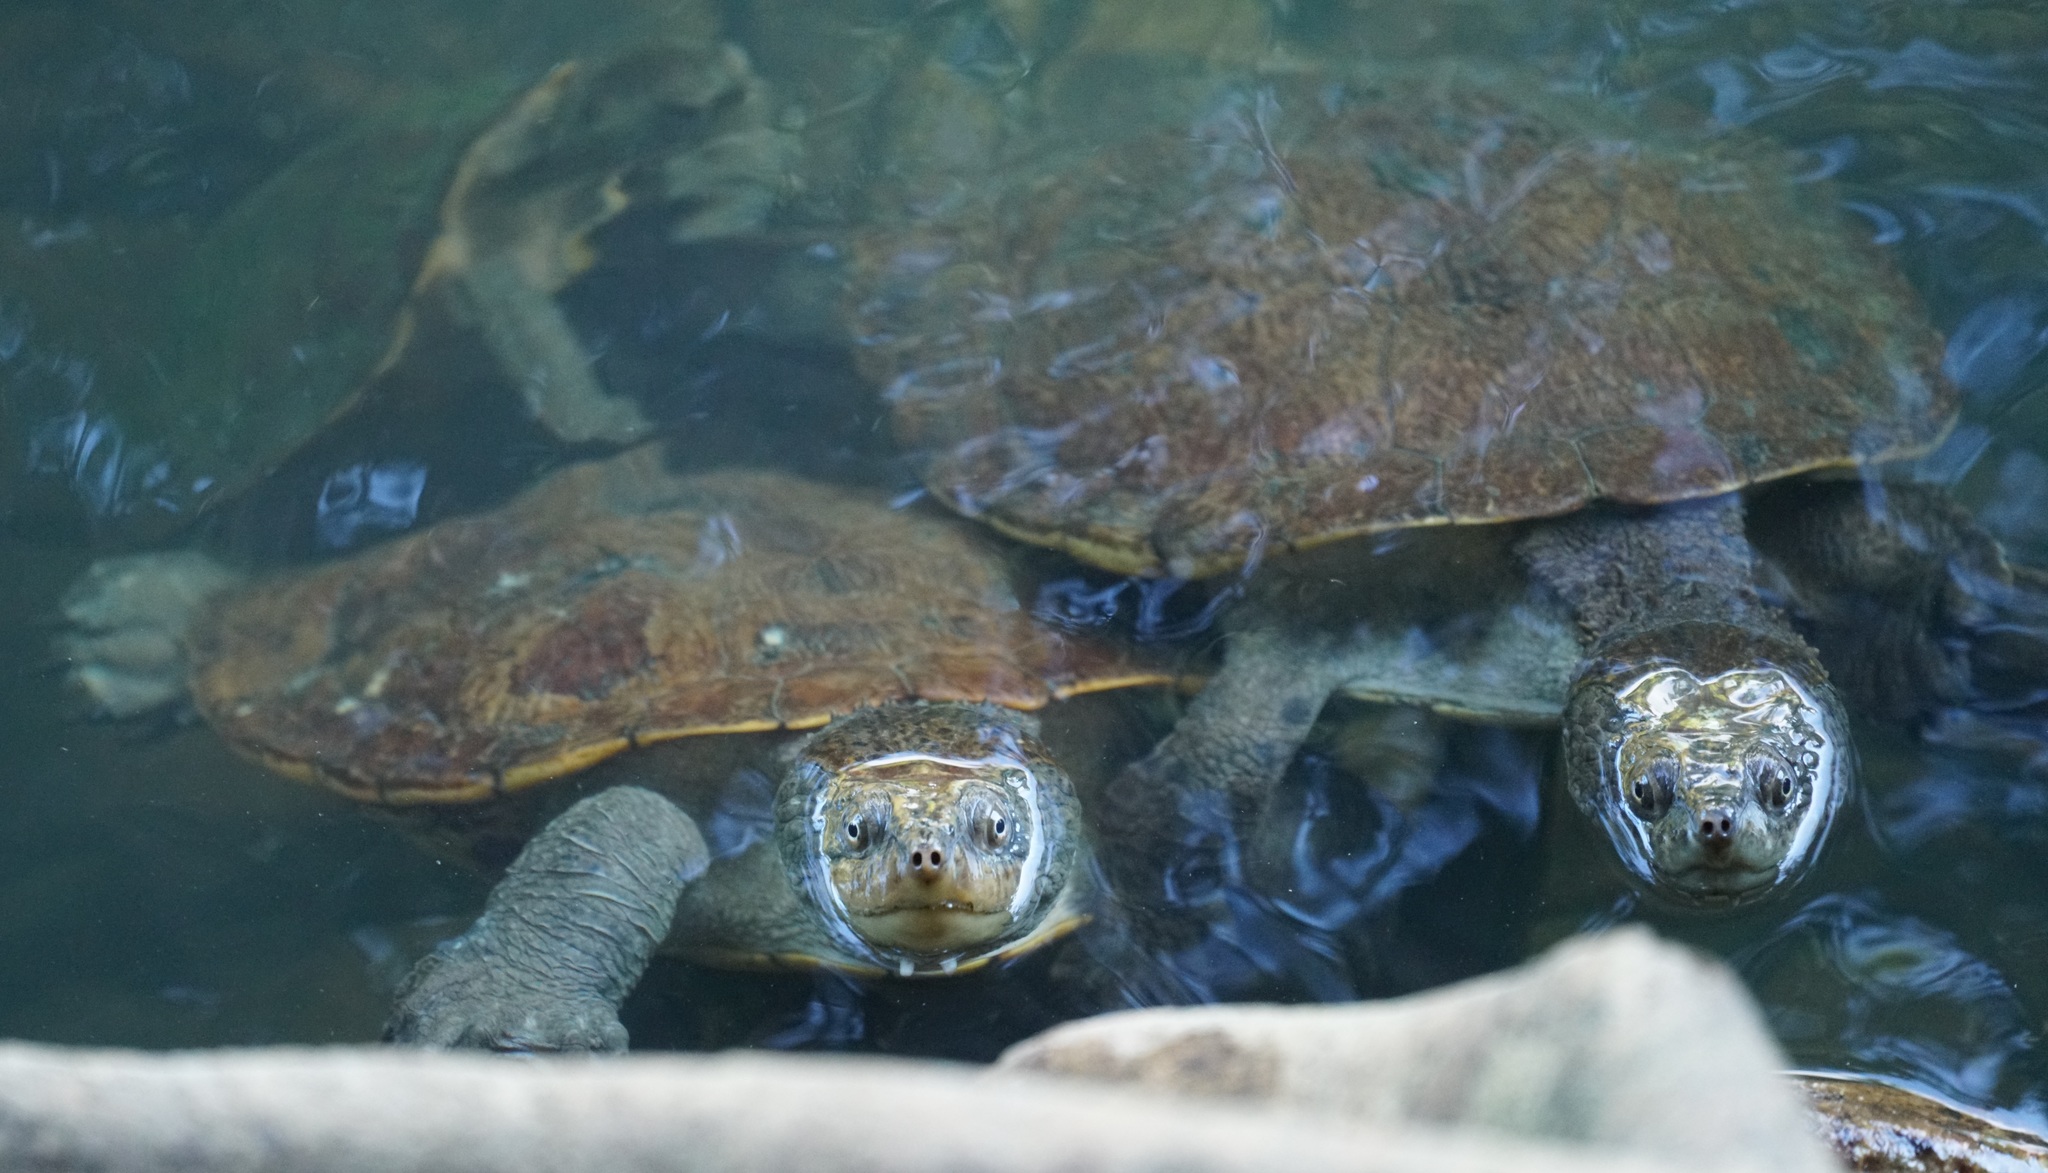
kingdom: Animalia
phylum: Chordata
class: Testudines
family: Chelidae
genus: Myuchelys
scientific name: Myuchelys latisternum
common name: Serrated snapping turtle
